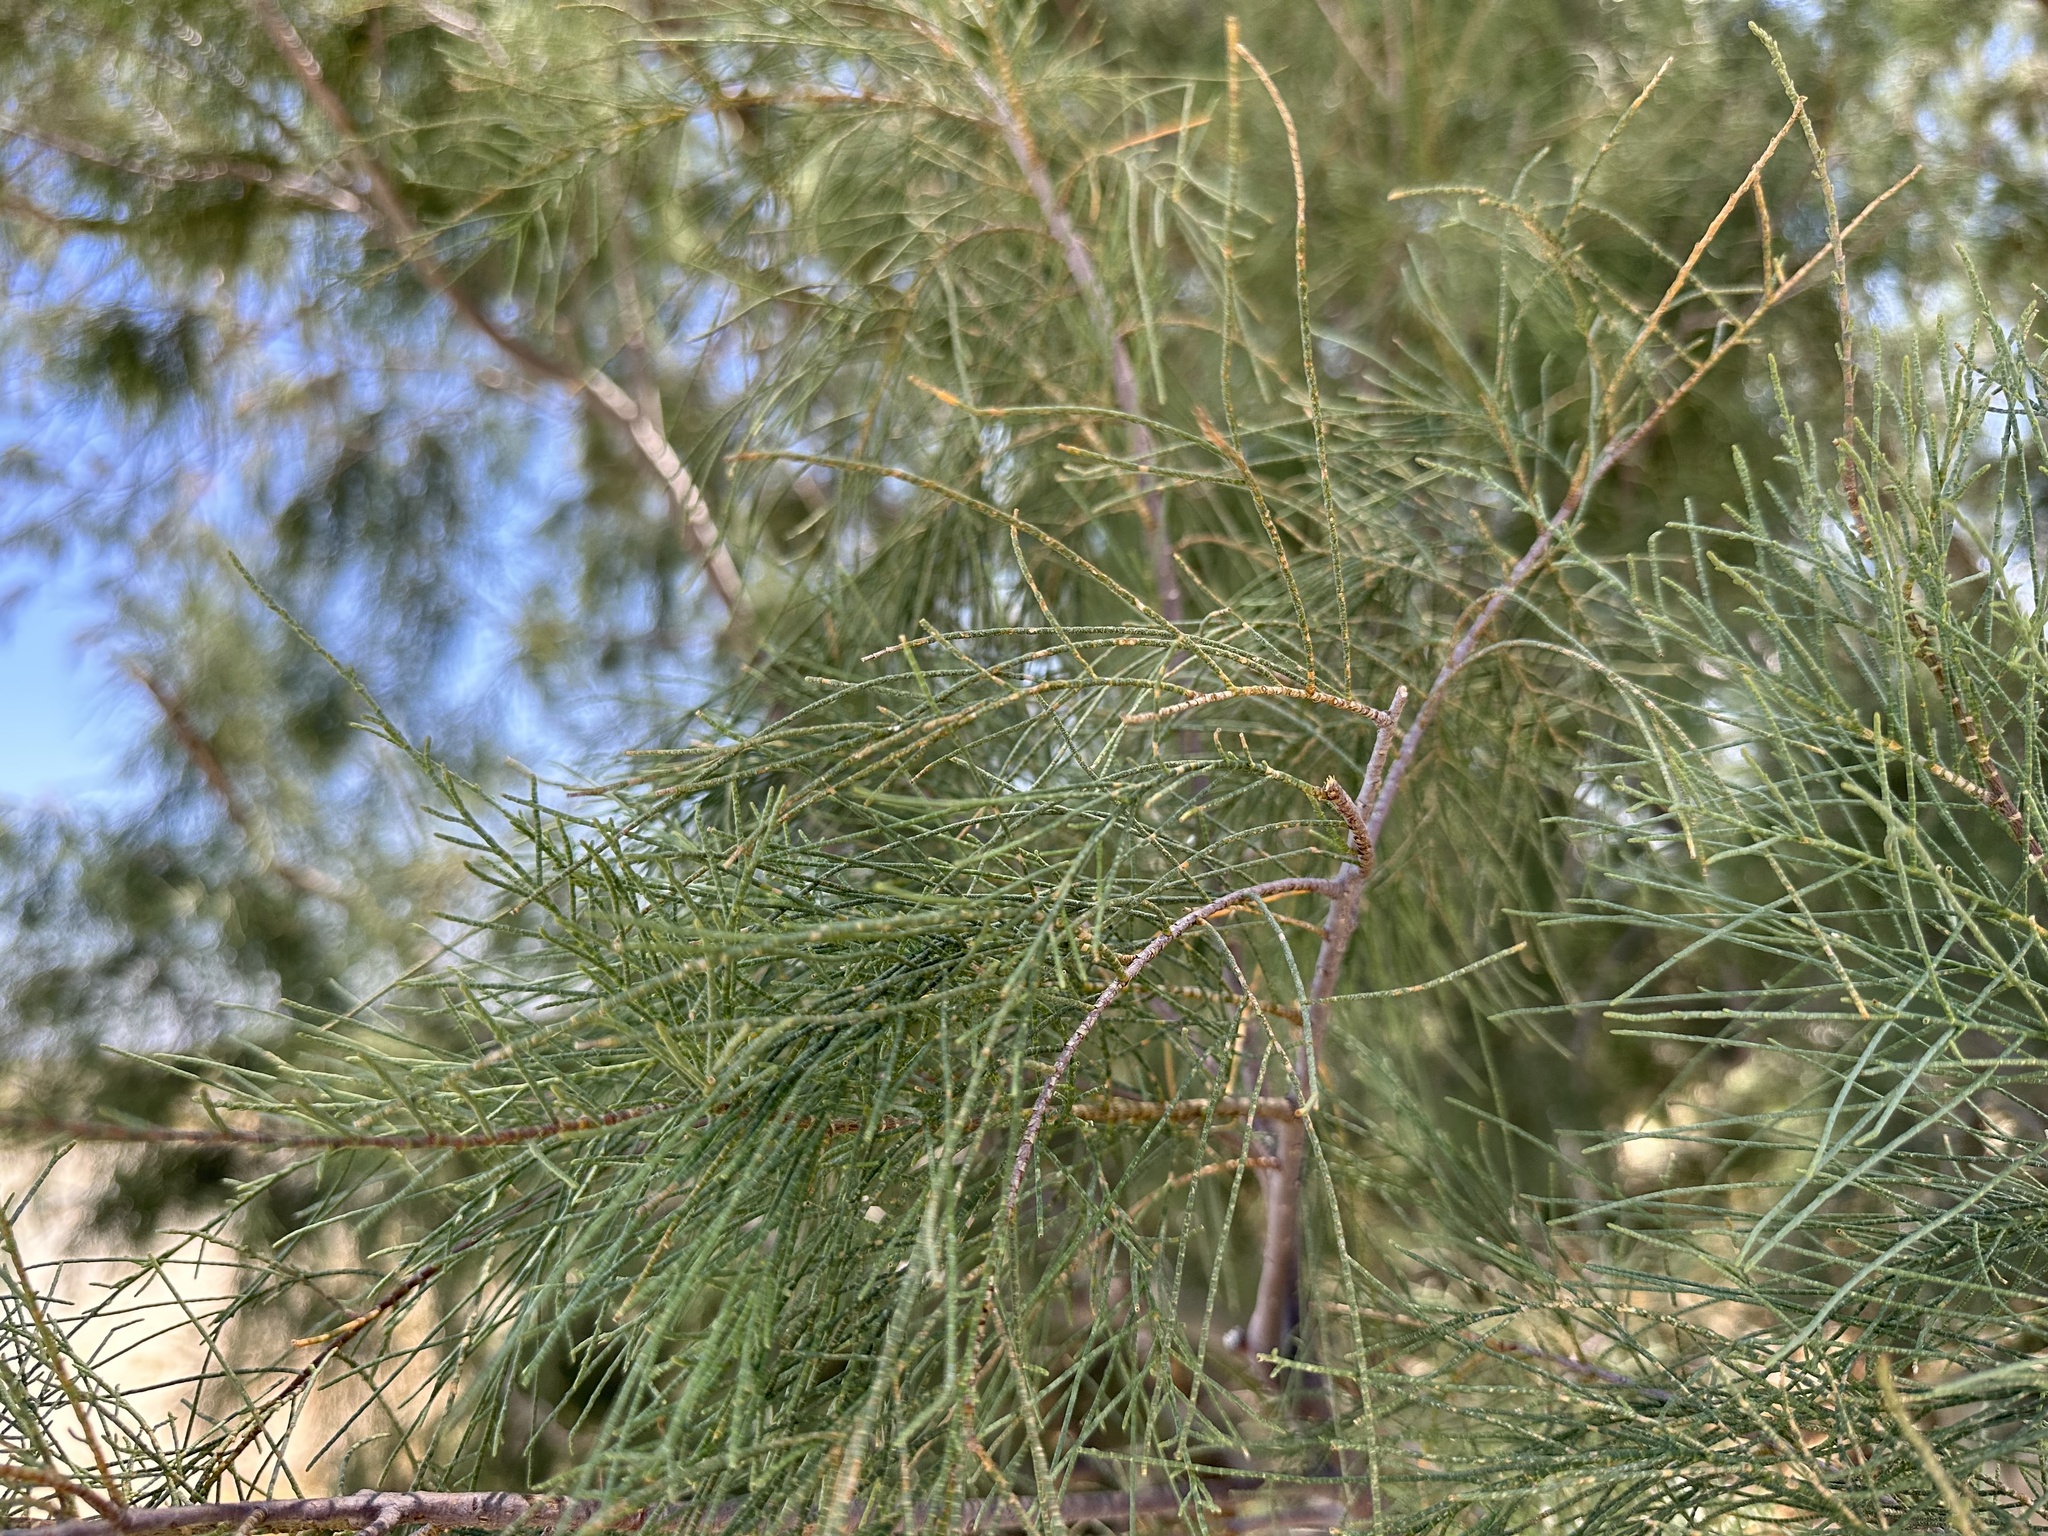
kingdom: Plantae
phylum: Tracheophyta
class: Magnoliopsida
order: Caryophyllales
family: Tamaricaceae
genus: Tamarix
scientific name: Tamarix aphylla
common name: Athel tamarisk
